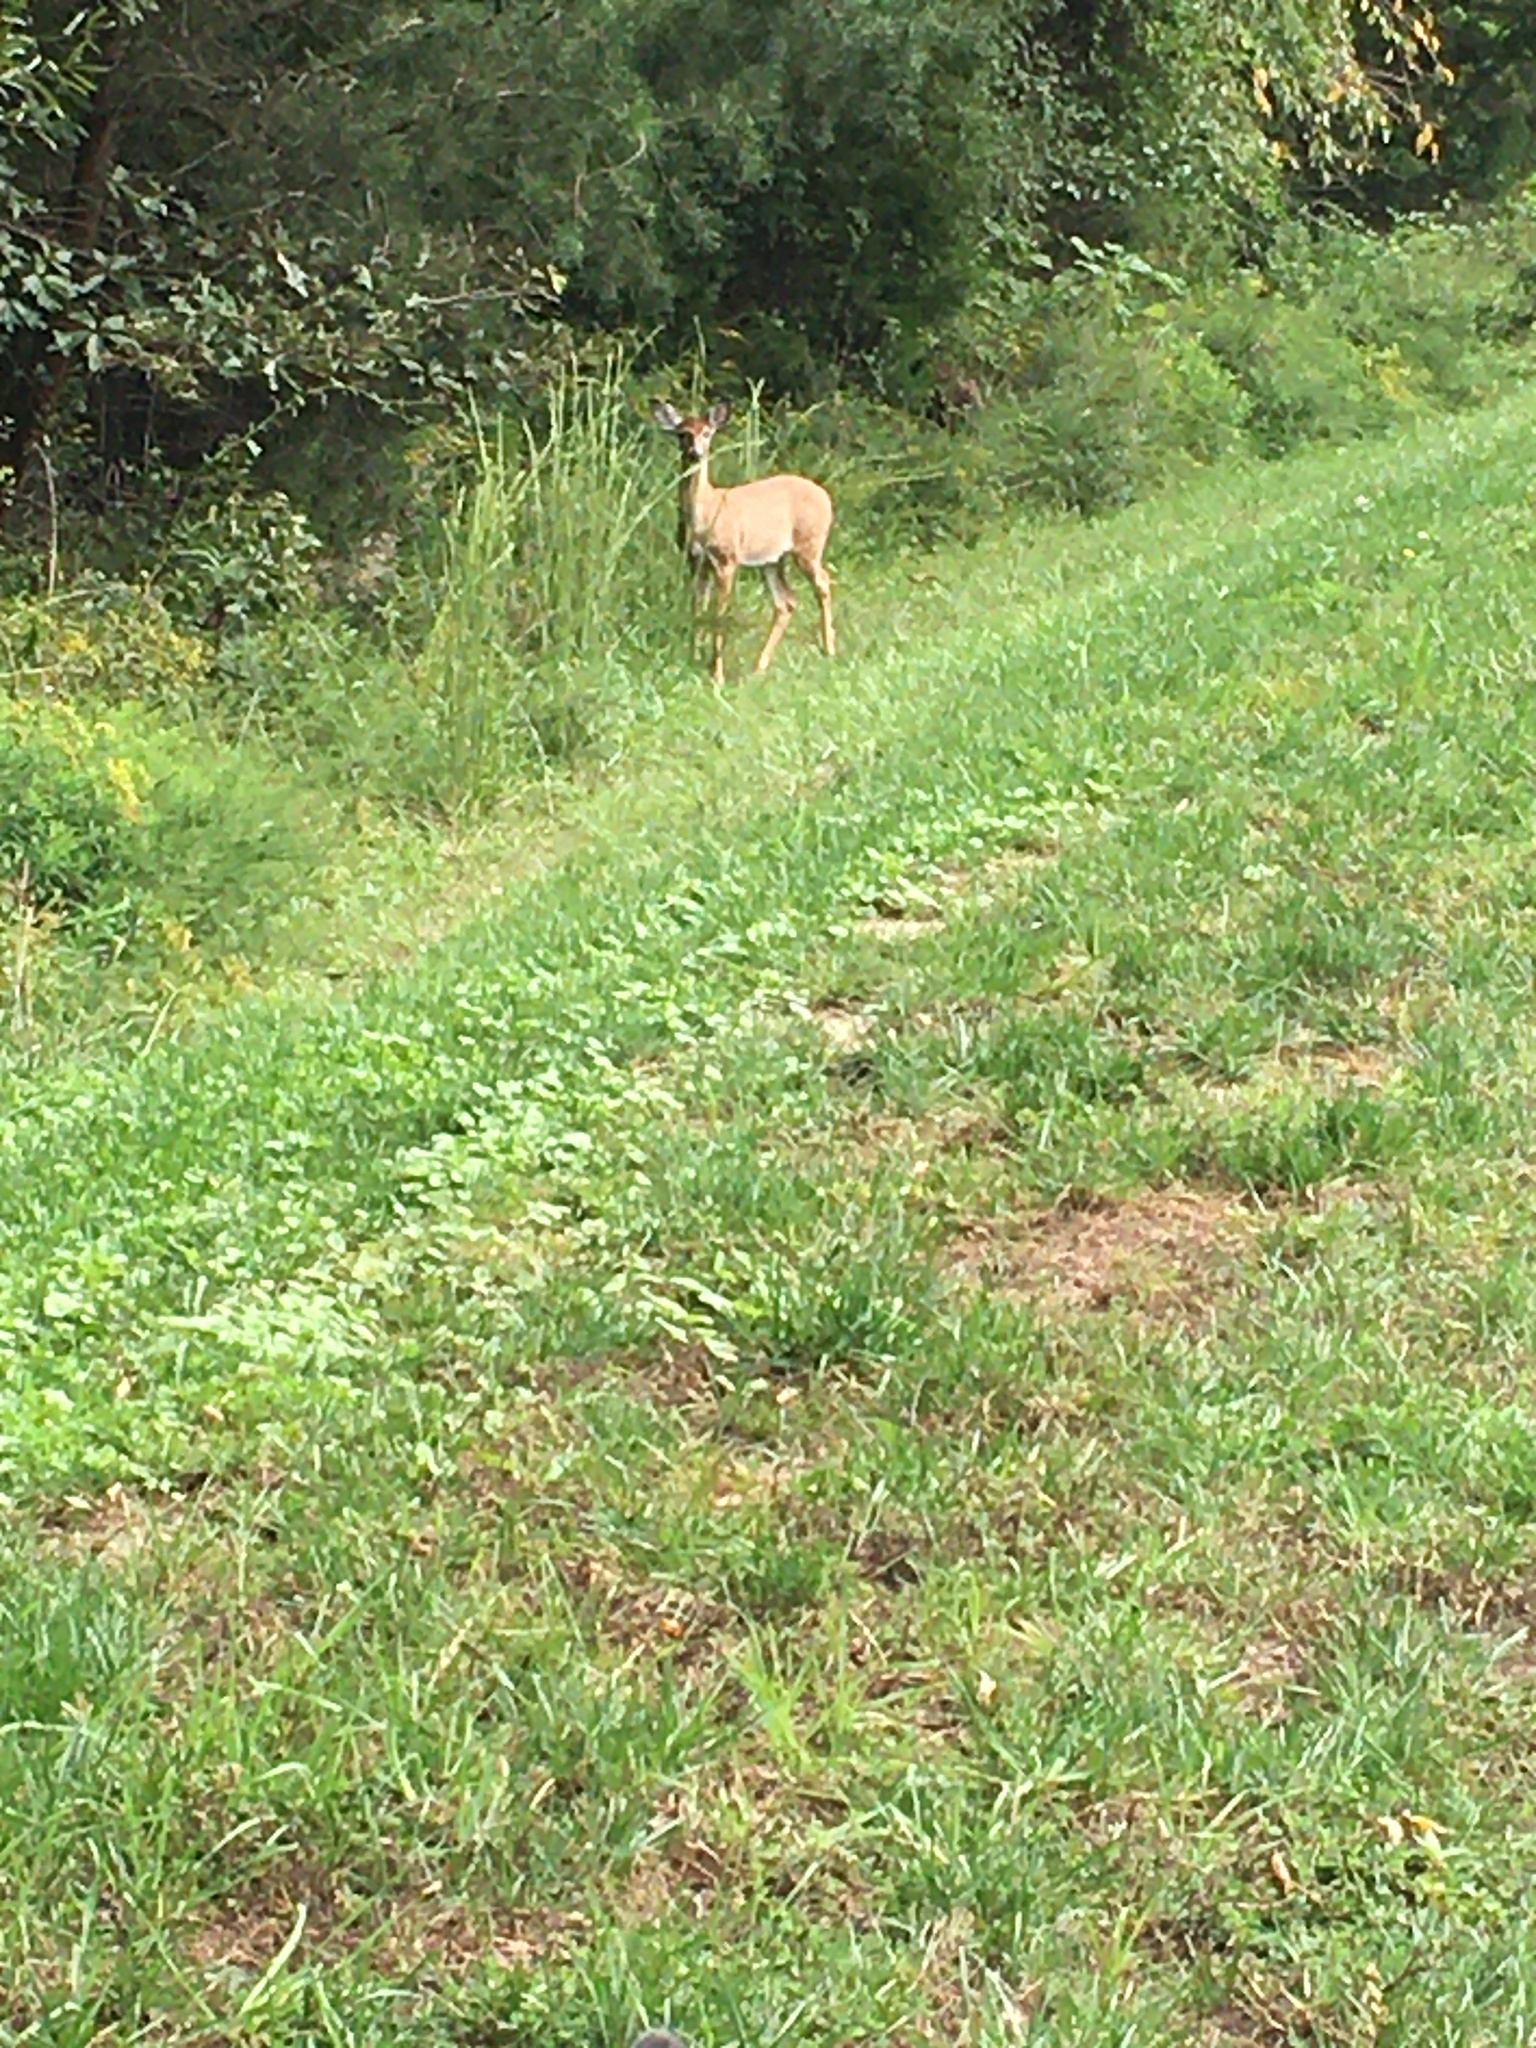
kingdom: Animalia
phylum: Chordata
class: Mammalia
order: Artiodactyla
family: Cervidae
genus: Odocoileus
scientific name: Odocoileus virginianus
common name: White-tailed deer
